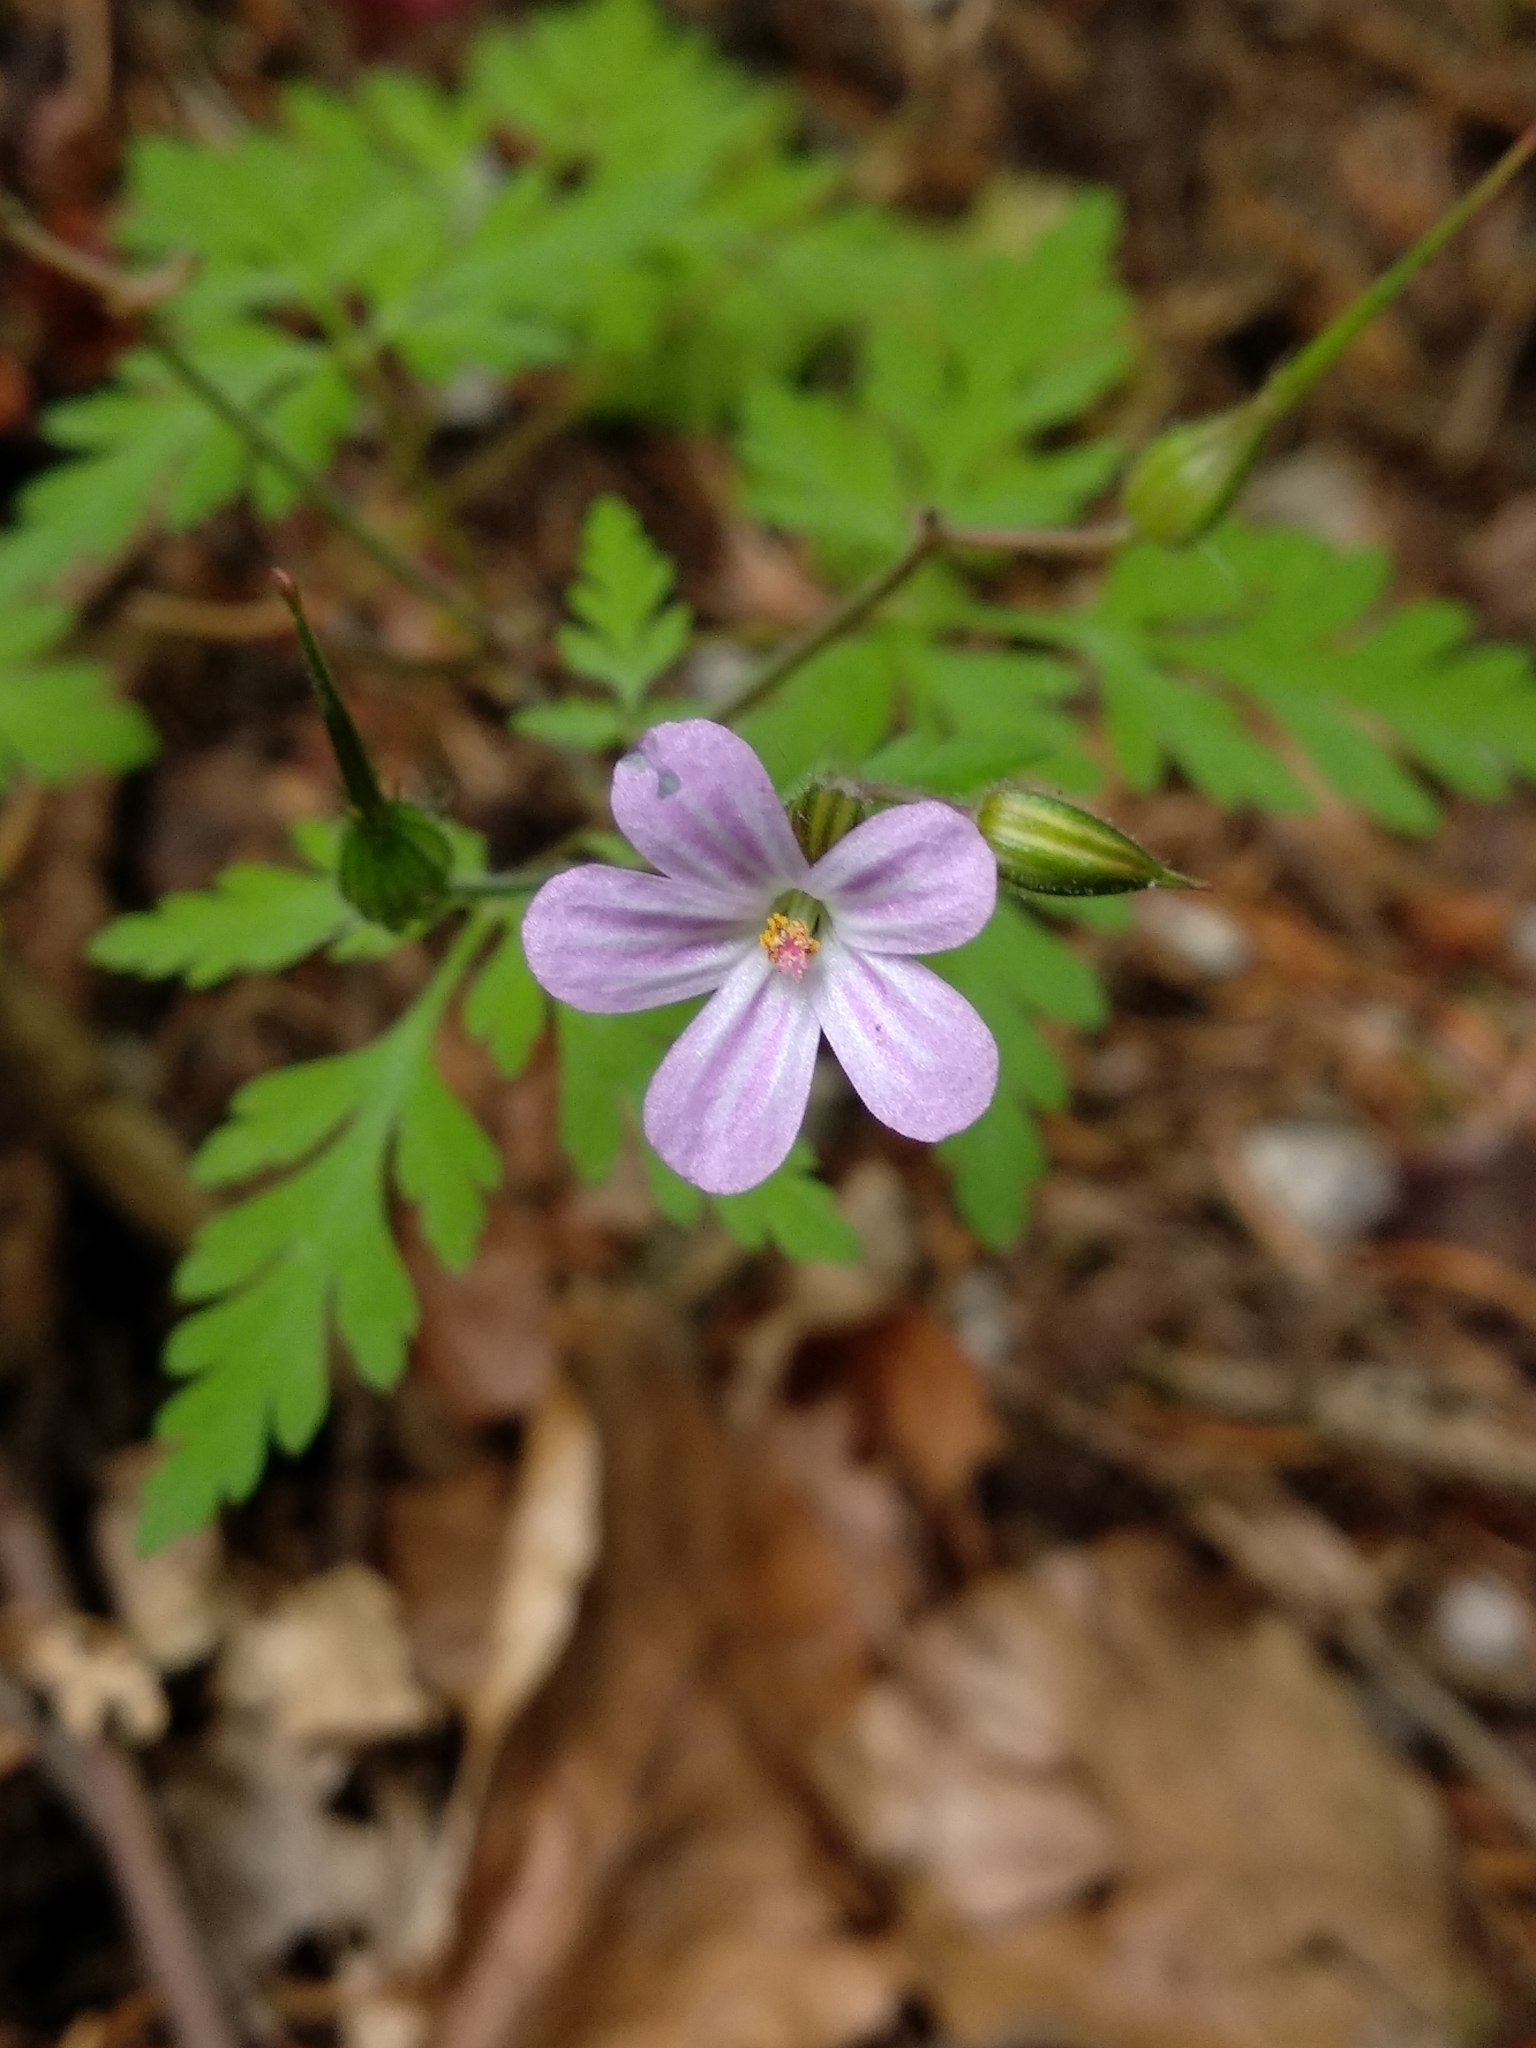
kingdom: Plantae
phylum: Tracheophyta
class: Magnoliopsida
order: Geraniales
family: Geraniaceae
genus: Geranium
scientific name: Geranium robertianum
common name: Herb-robert
